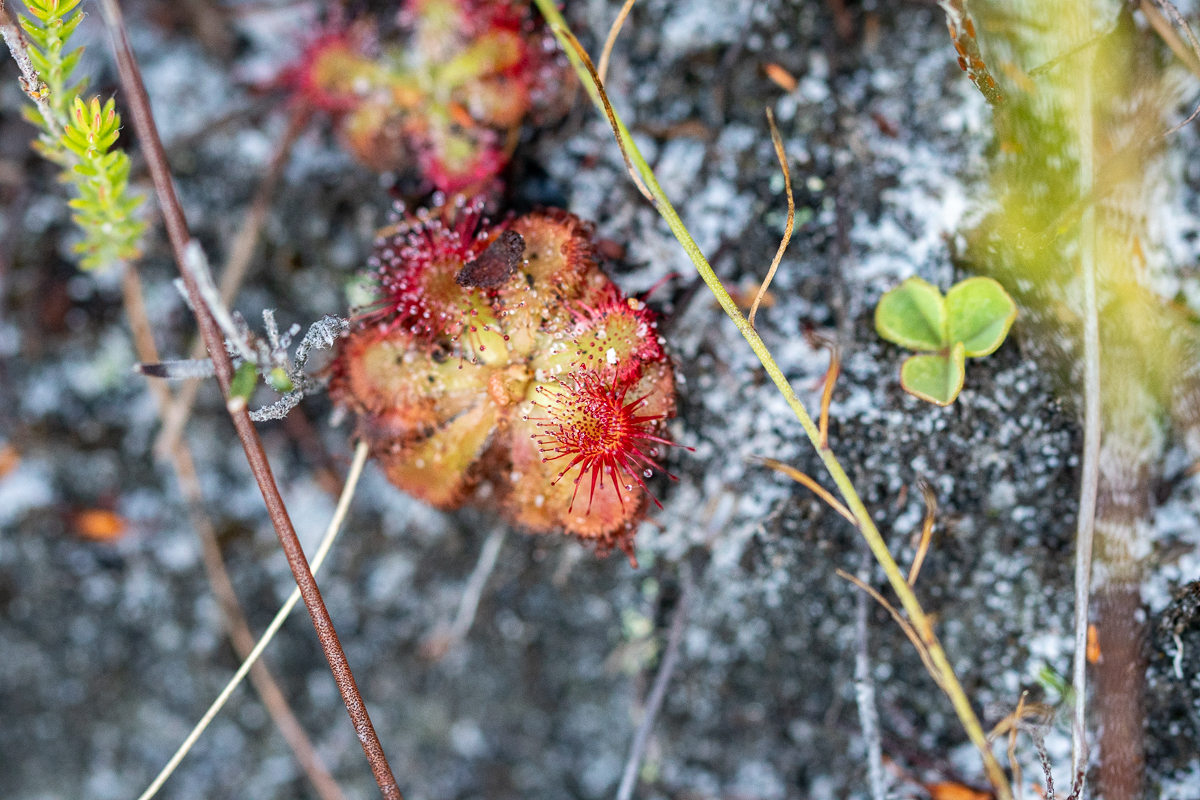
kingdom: Plantae
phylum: Tracheophyta
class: Magnoliopsida
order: Caryophyllales
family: Droseraceae
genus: Drosera
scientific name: Drosera xerophila
